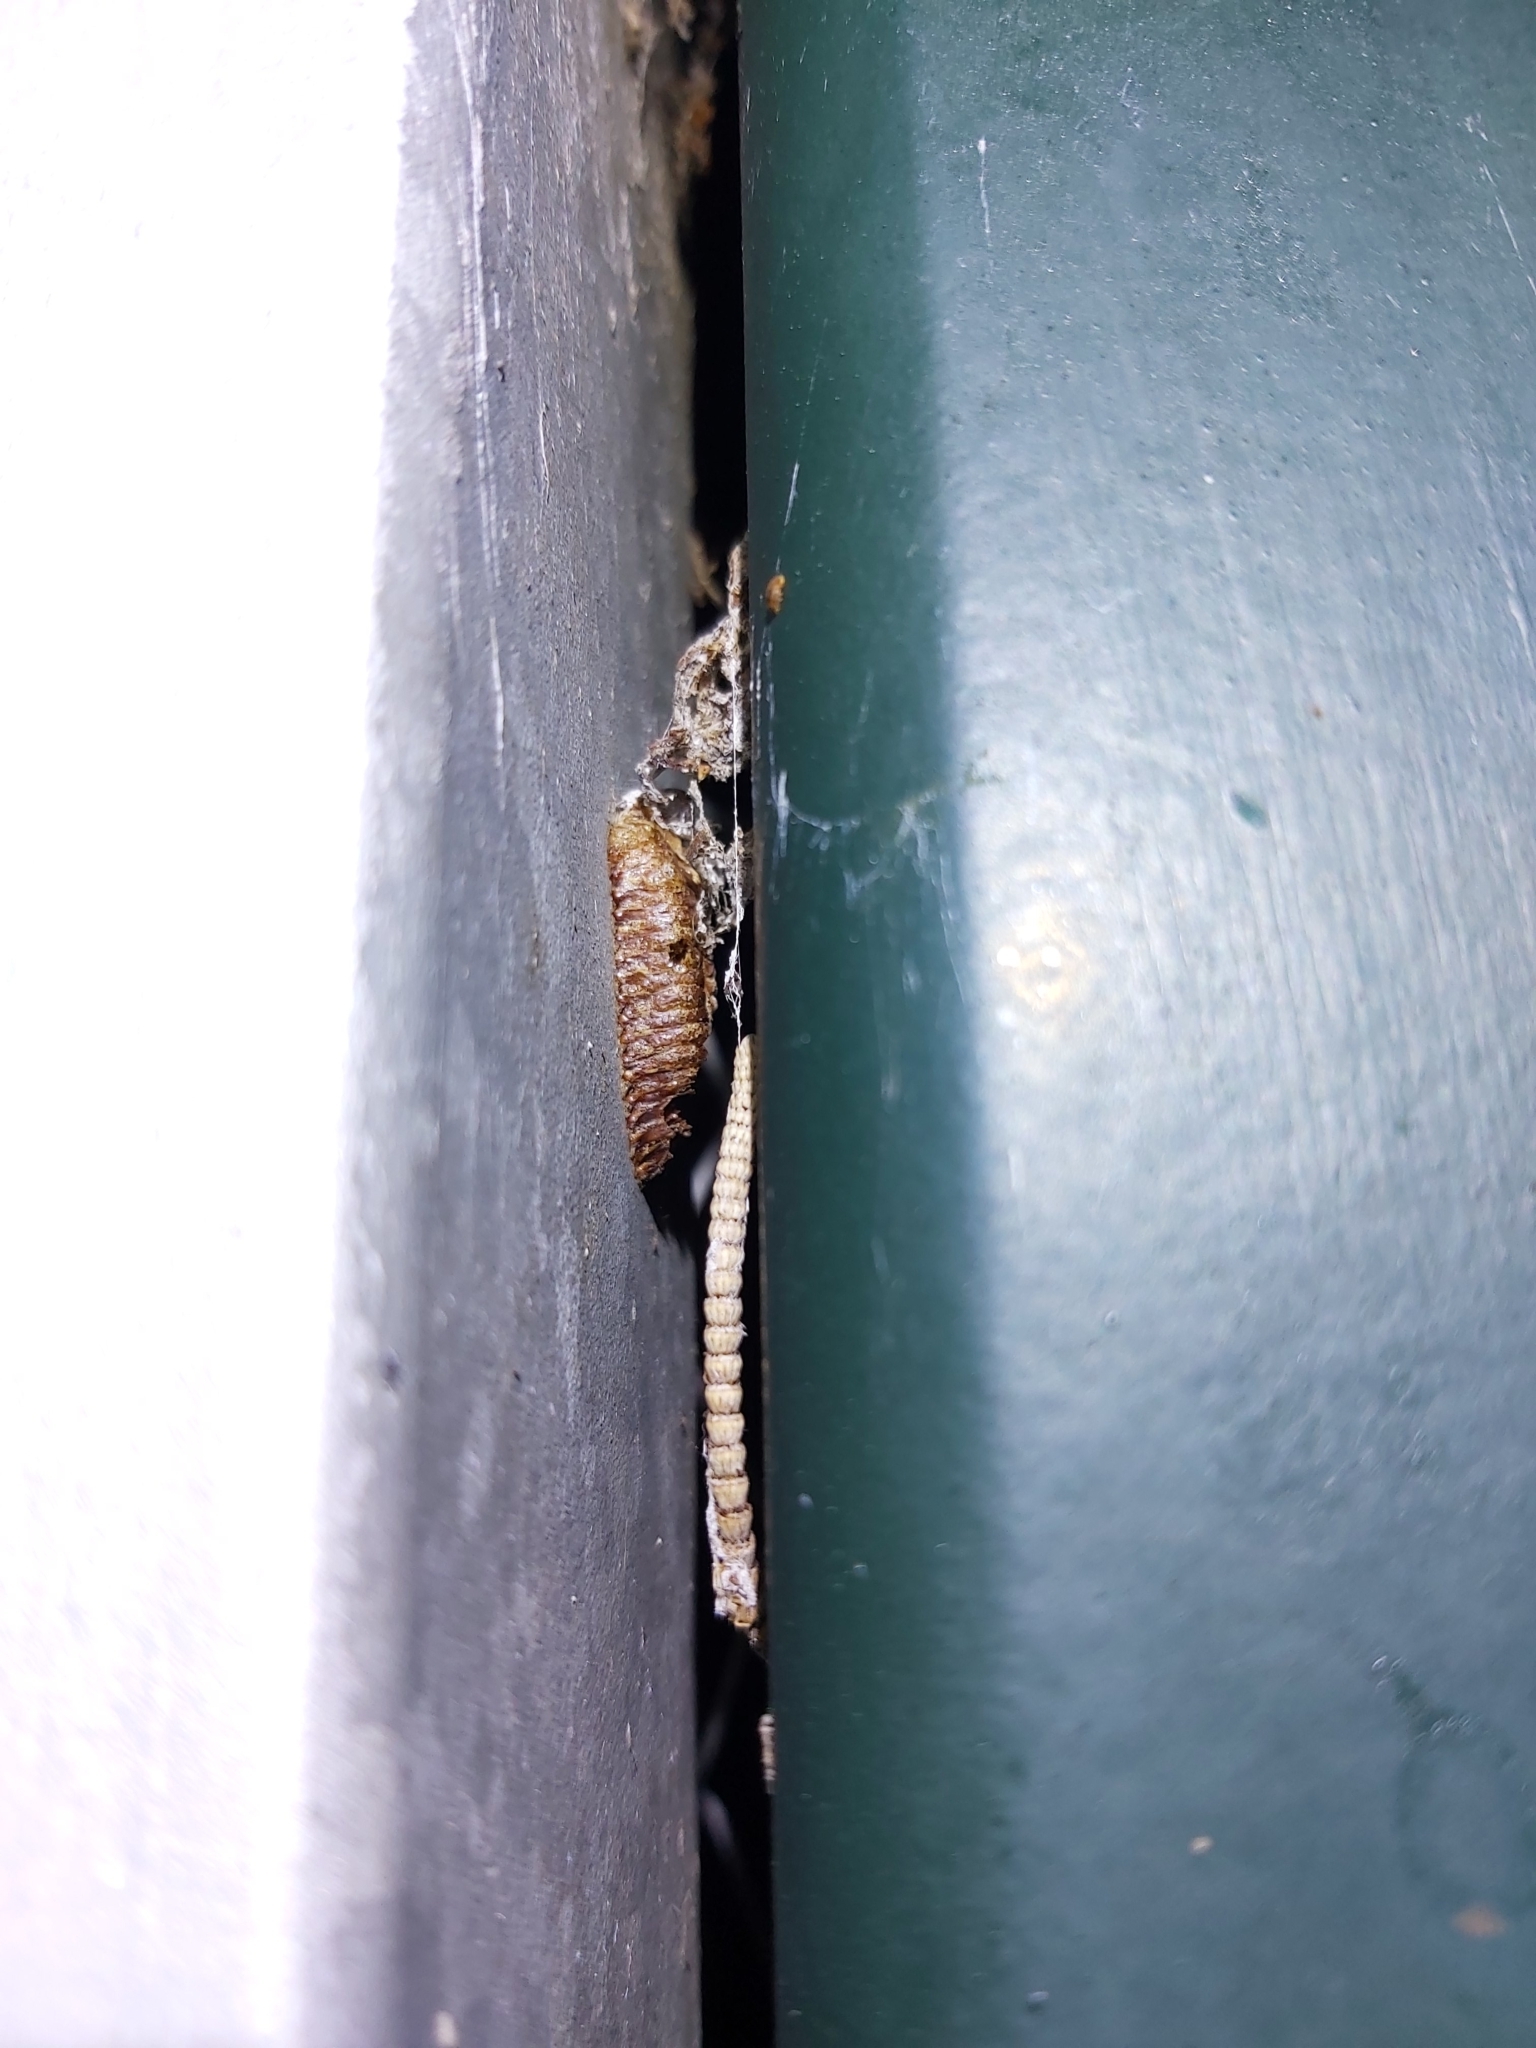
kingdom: Animalia
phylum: Arthropoda
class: Insecta
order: Mantodea
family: Mantidae
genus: Pseudomantis
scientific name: Pseudomantis albofimbriata
